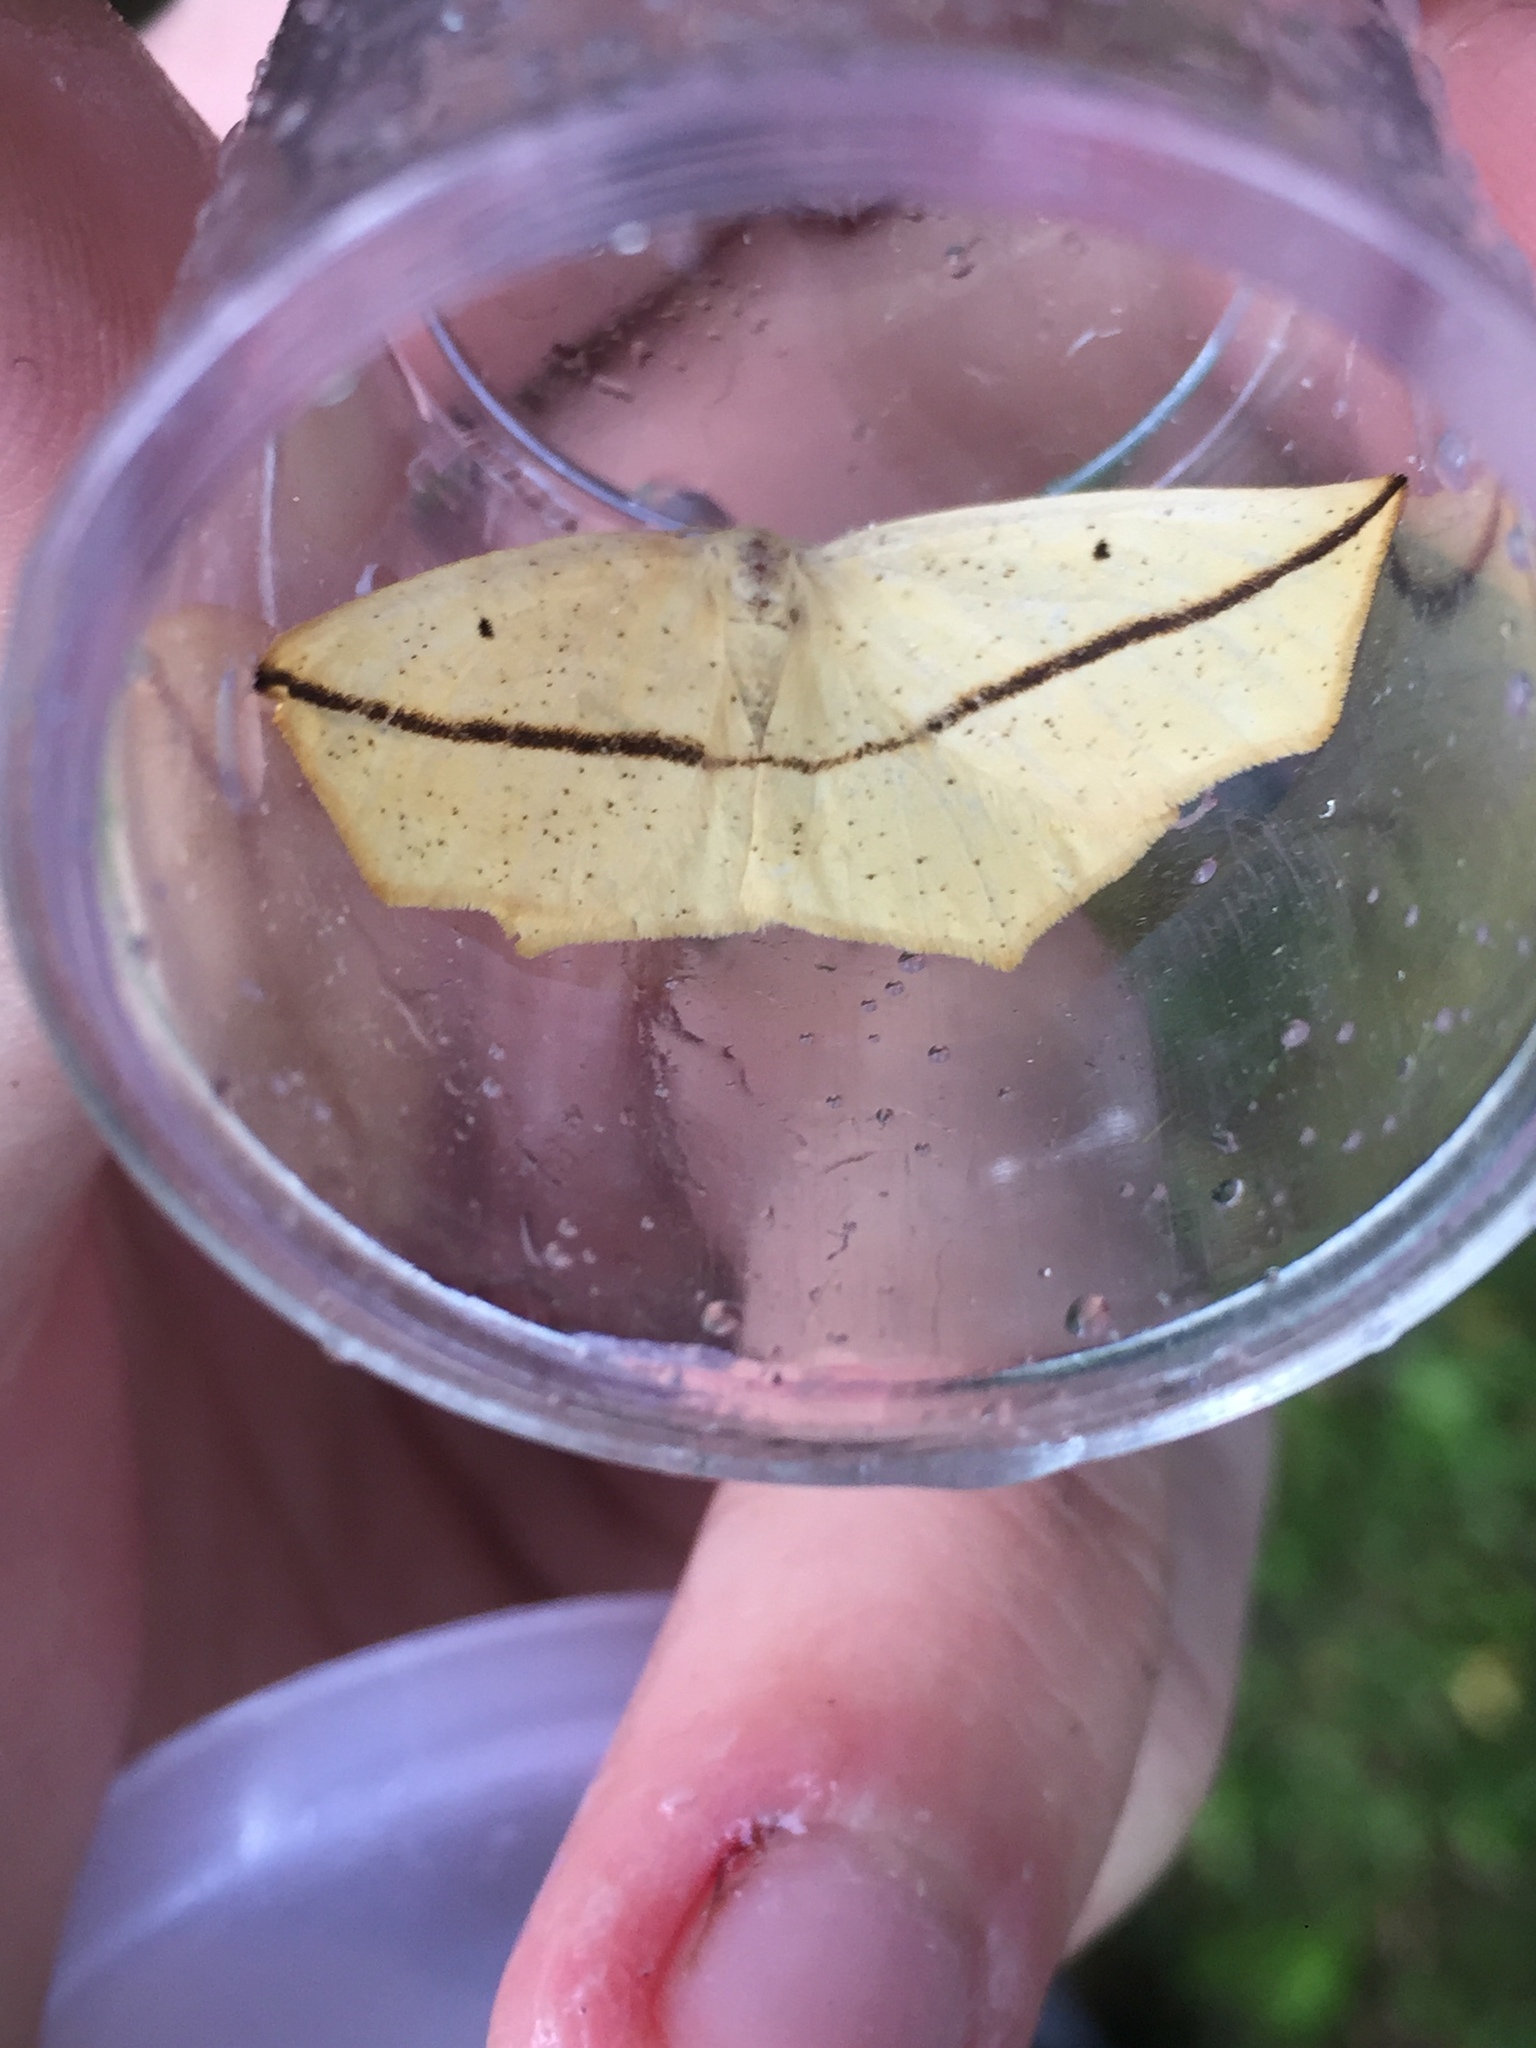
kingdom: Animalia
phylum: Arthropoda
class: Insecta
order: Lepidoptera
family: Geometridae
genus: Tetracis
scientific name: Tetracis crocallata
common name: Yellow slant-line
